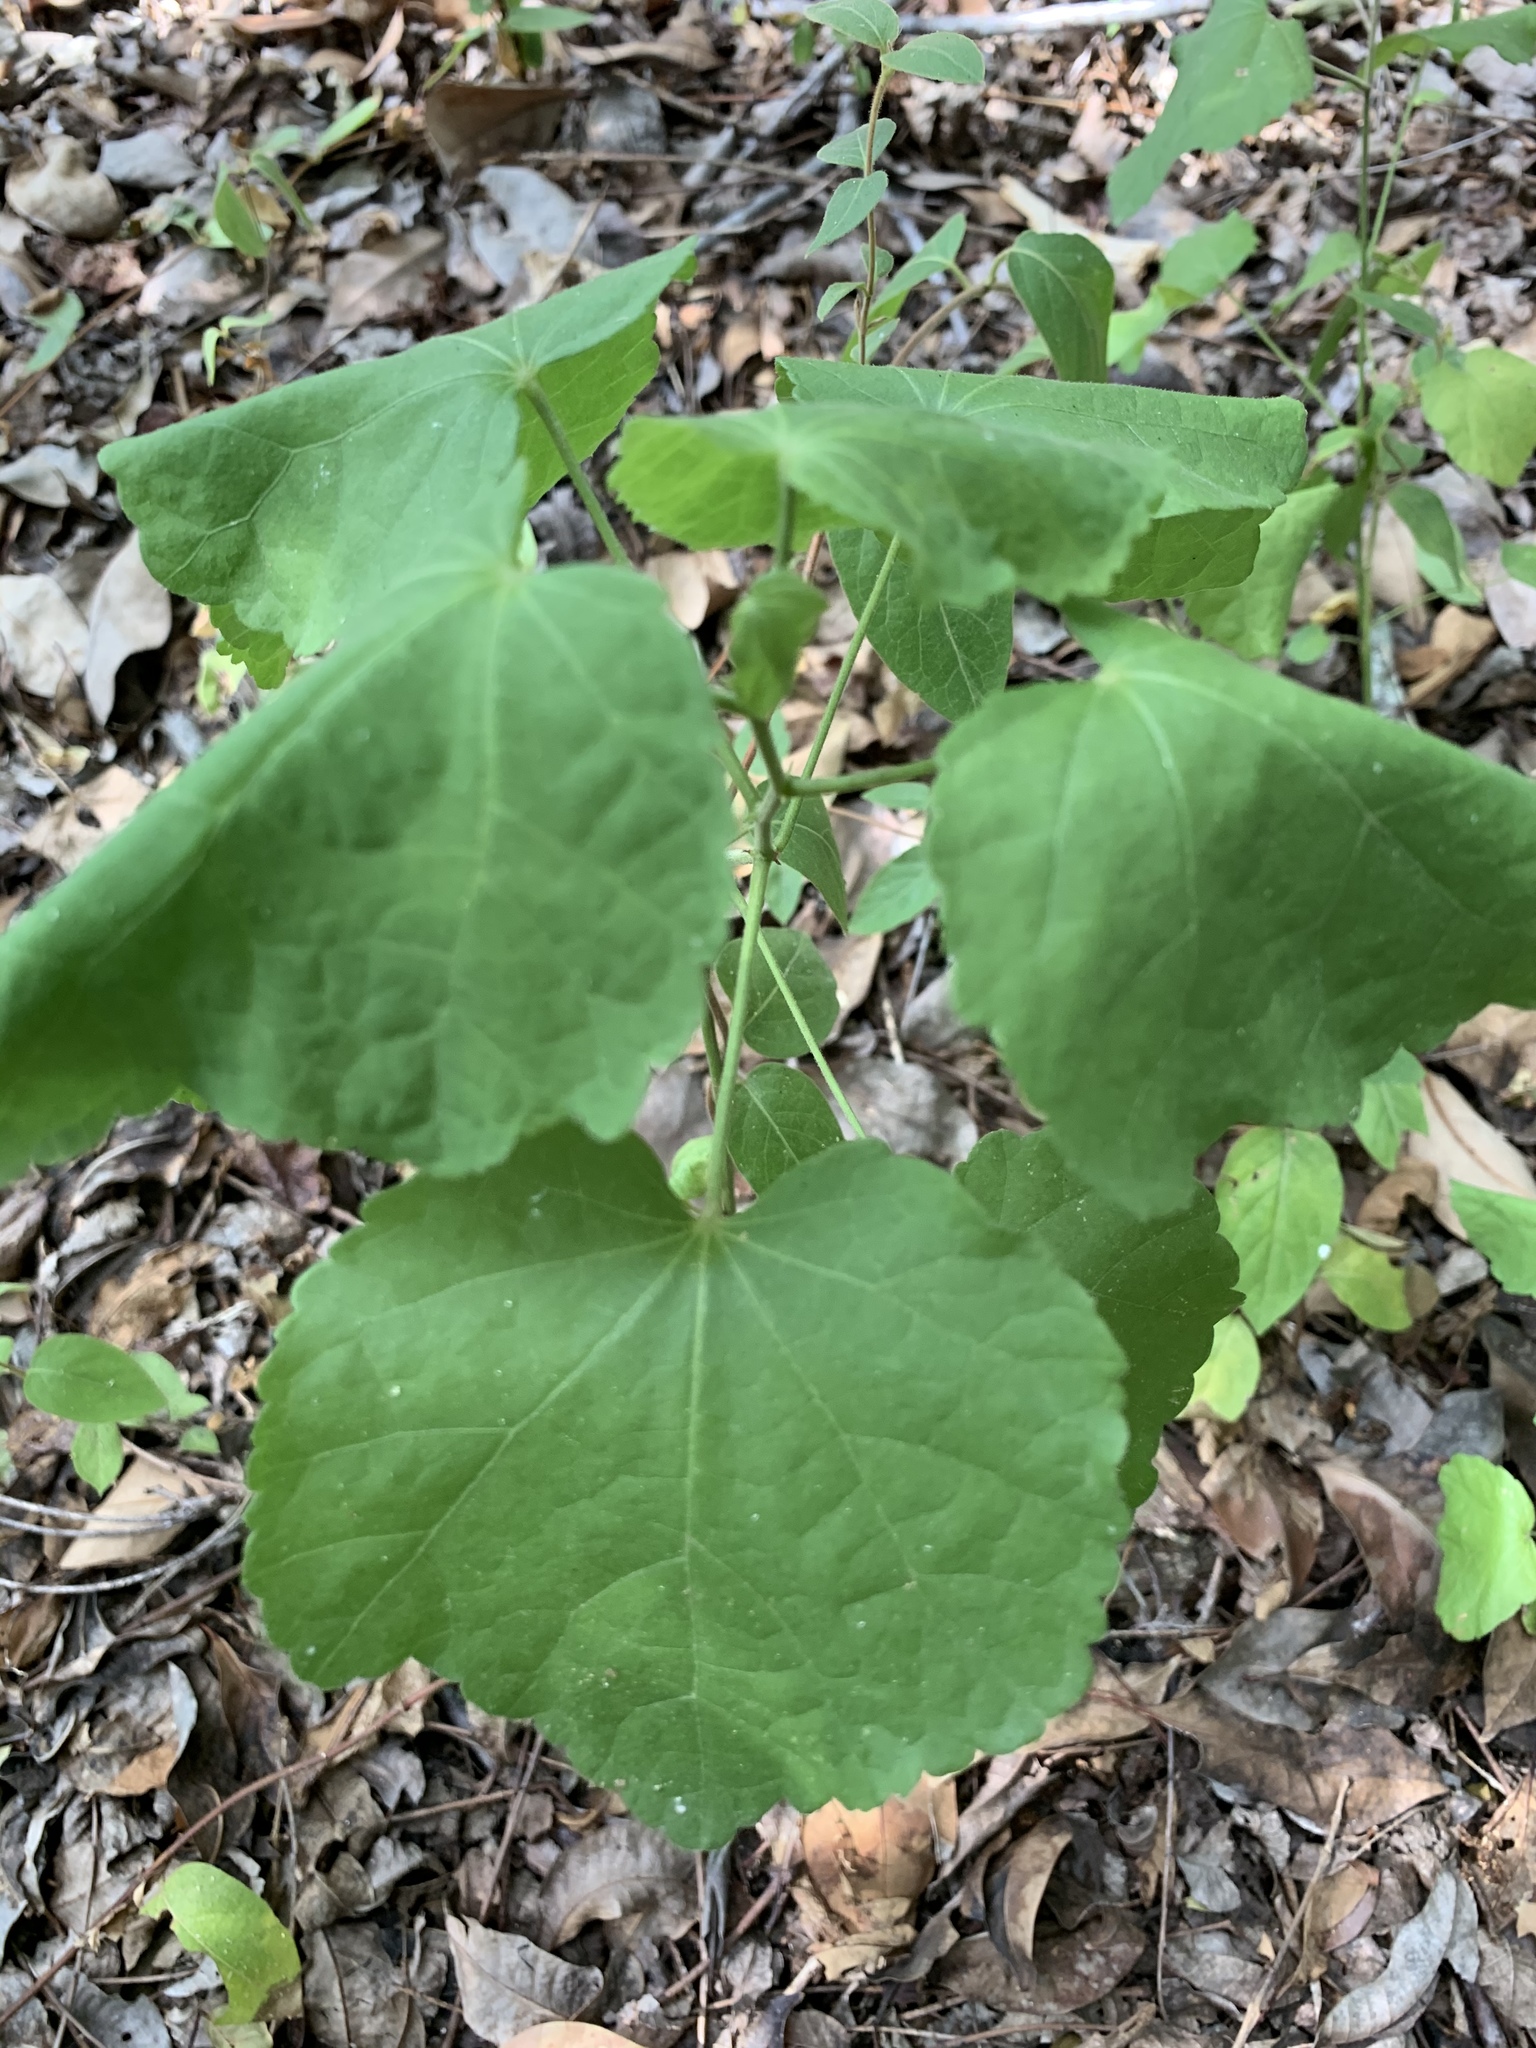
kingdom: Plantae
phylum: Tracheophyta
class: Magnoliopsida
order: Malvales
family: Malvaceae
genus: Malvaviscus
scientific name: Malvaviscus arboreus
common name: Wax mallow
